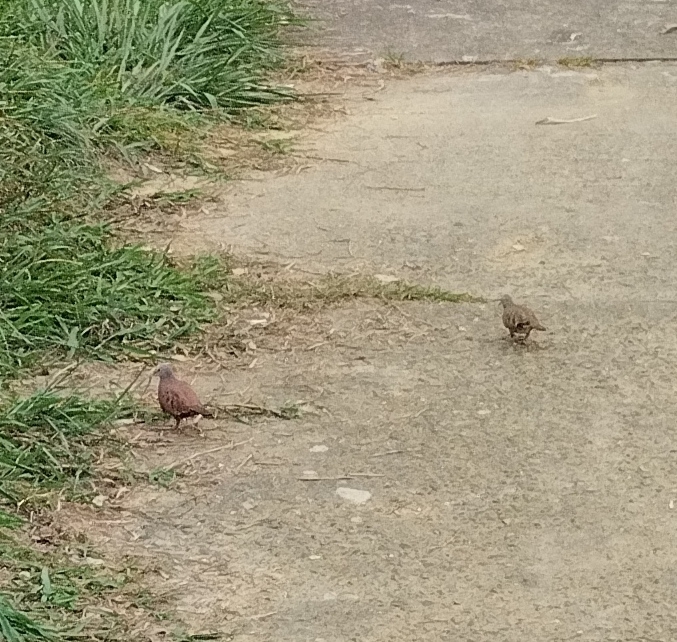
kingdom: Animalia
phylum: Chordata
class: Aves
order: Columbiformes
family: Columbidae
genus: Columbina
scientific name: Columbina talpacoti
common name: Ruddy ground dove
